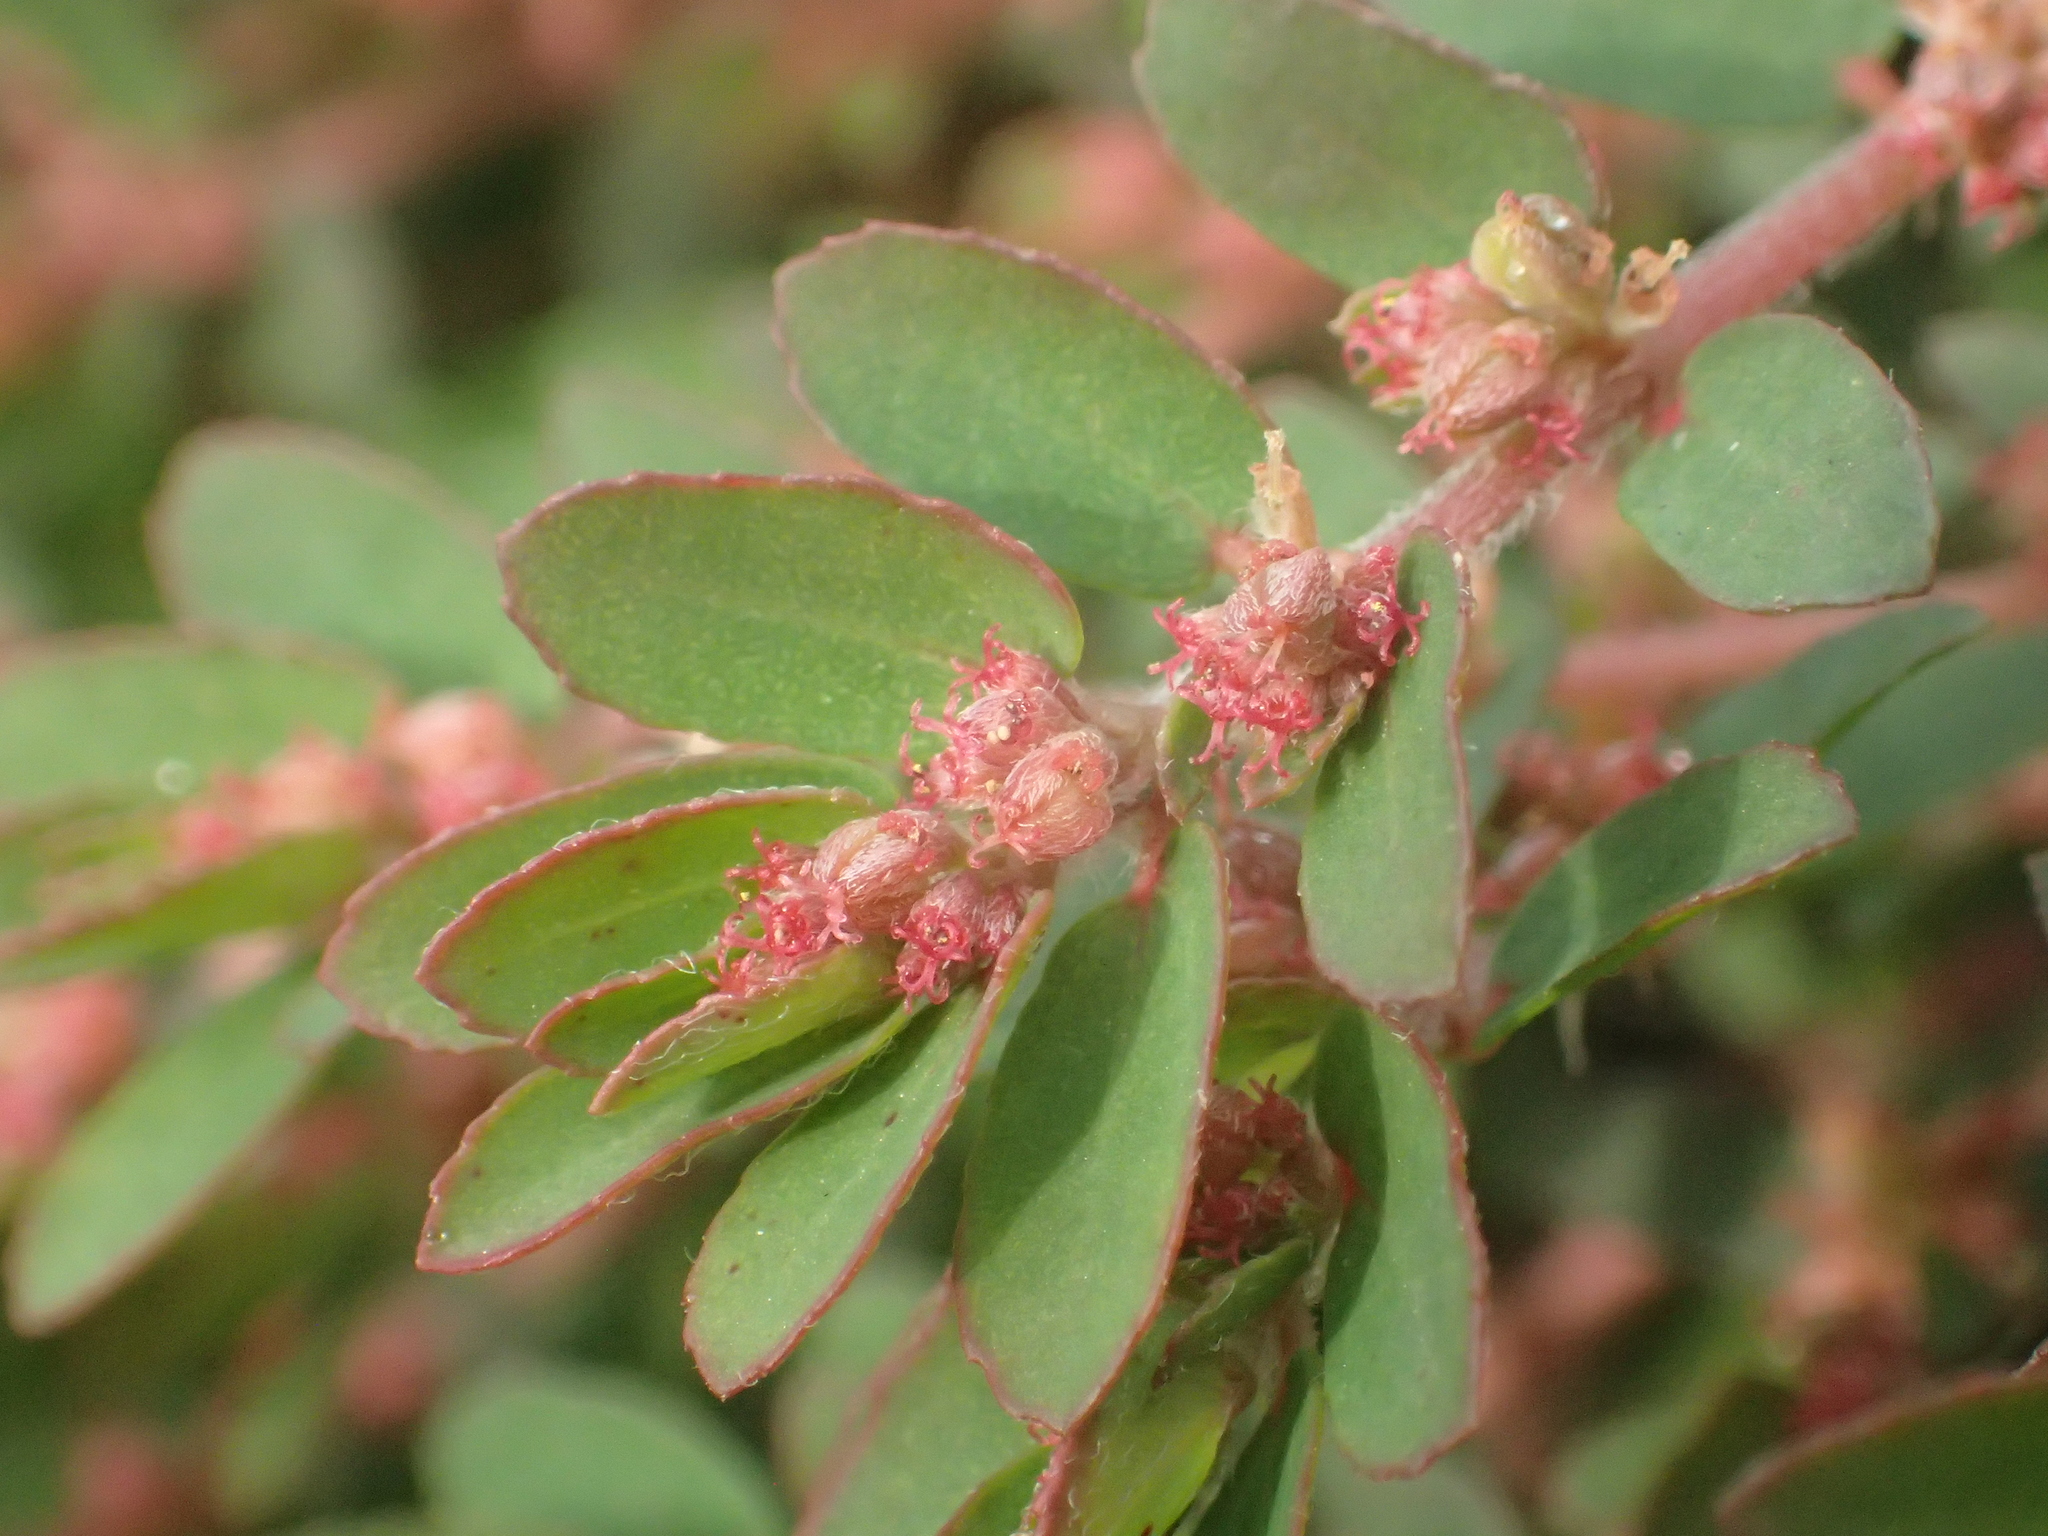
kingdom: Plantae
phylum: Tracheophyta
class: Magnoliopsida
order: Malpighiales
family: Euphorbiaceae
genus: Euphorbia
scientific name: Euphorbia thymifolia
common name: Gulf sandmat
